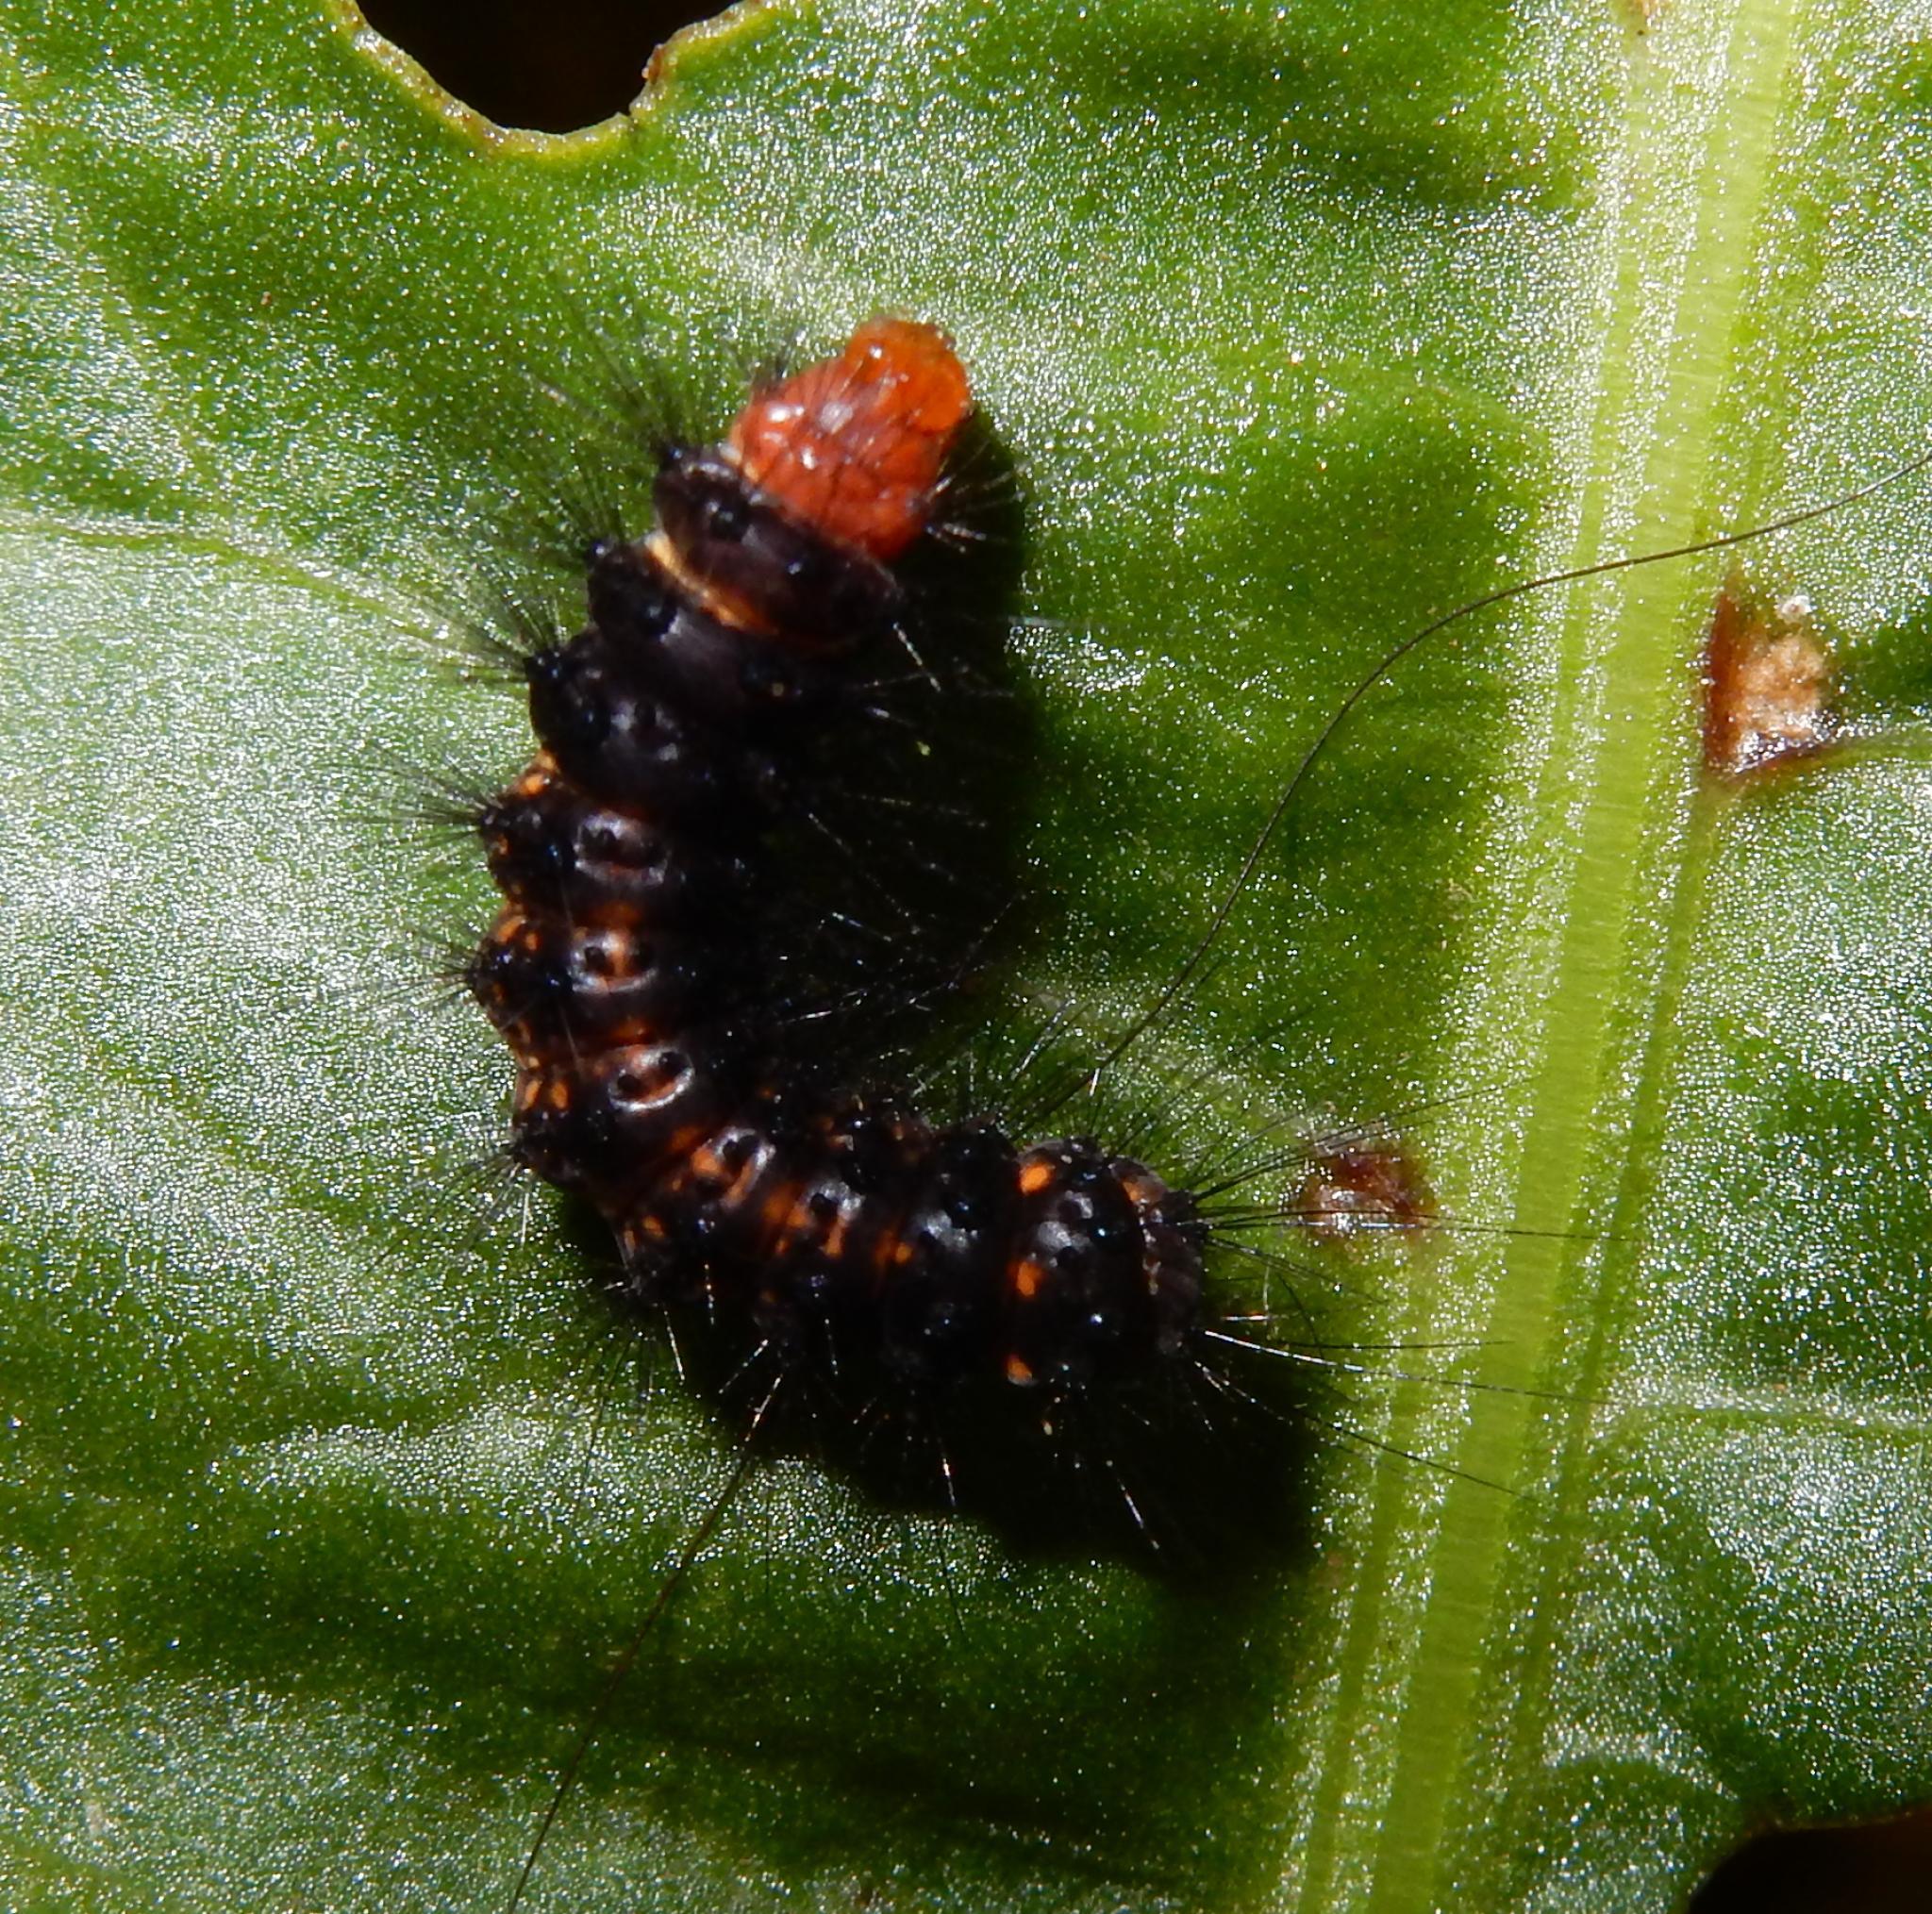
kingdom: Animalia
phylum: Arthropoda
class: Insecta
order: Lepidoptera
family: Erebidae
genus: Afromurzinia
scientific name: Afromurzinia lutescens
